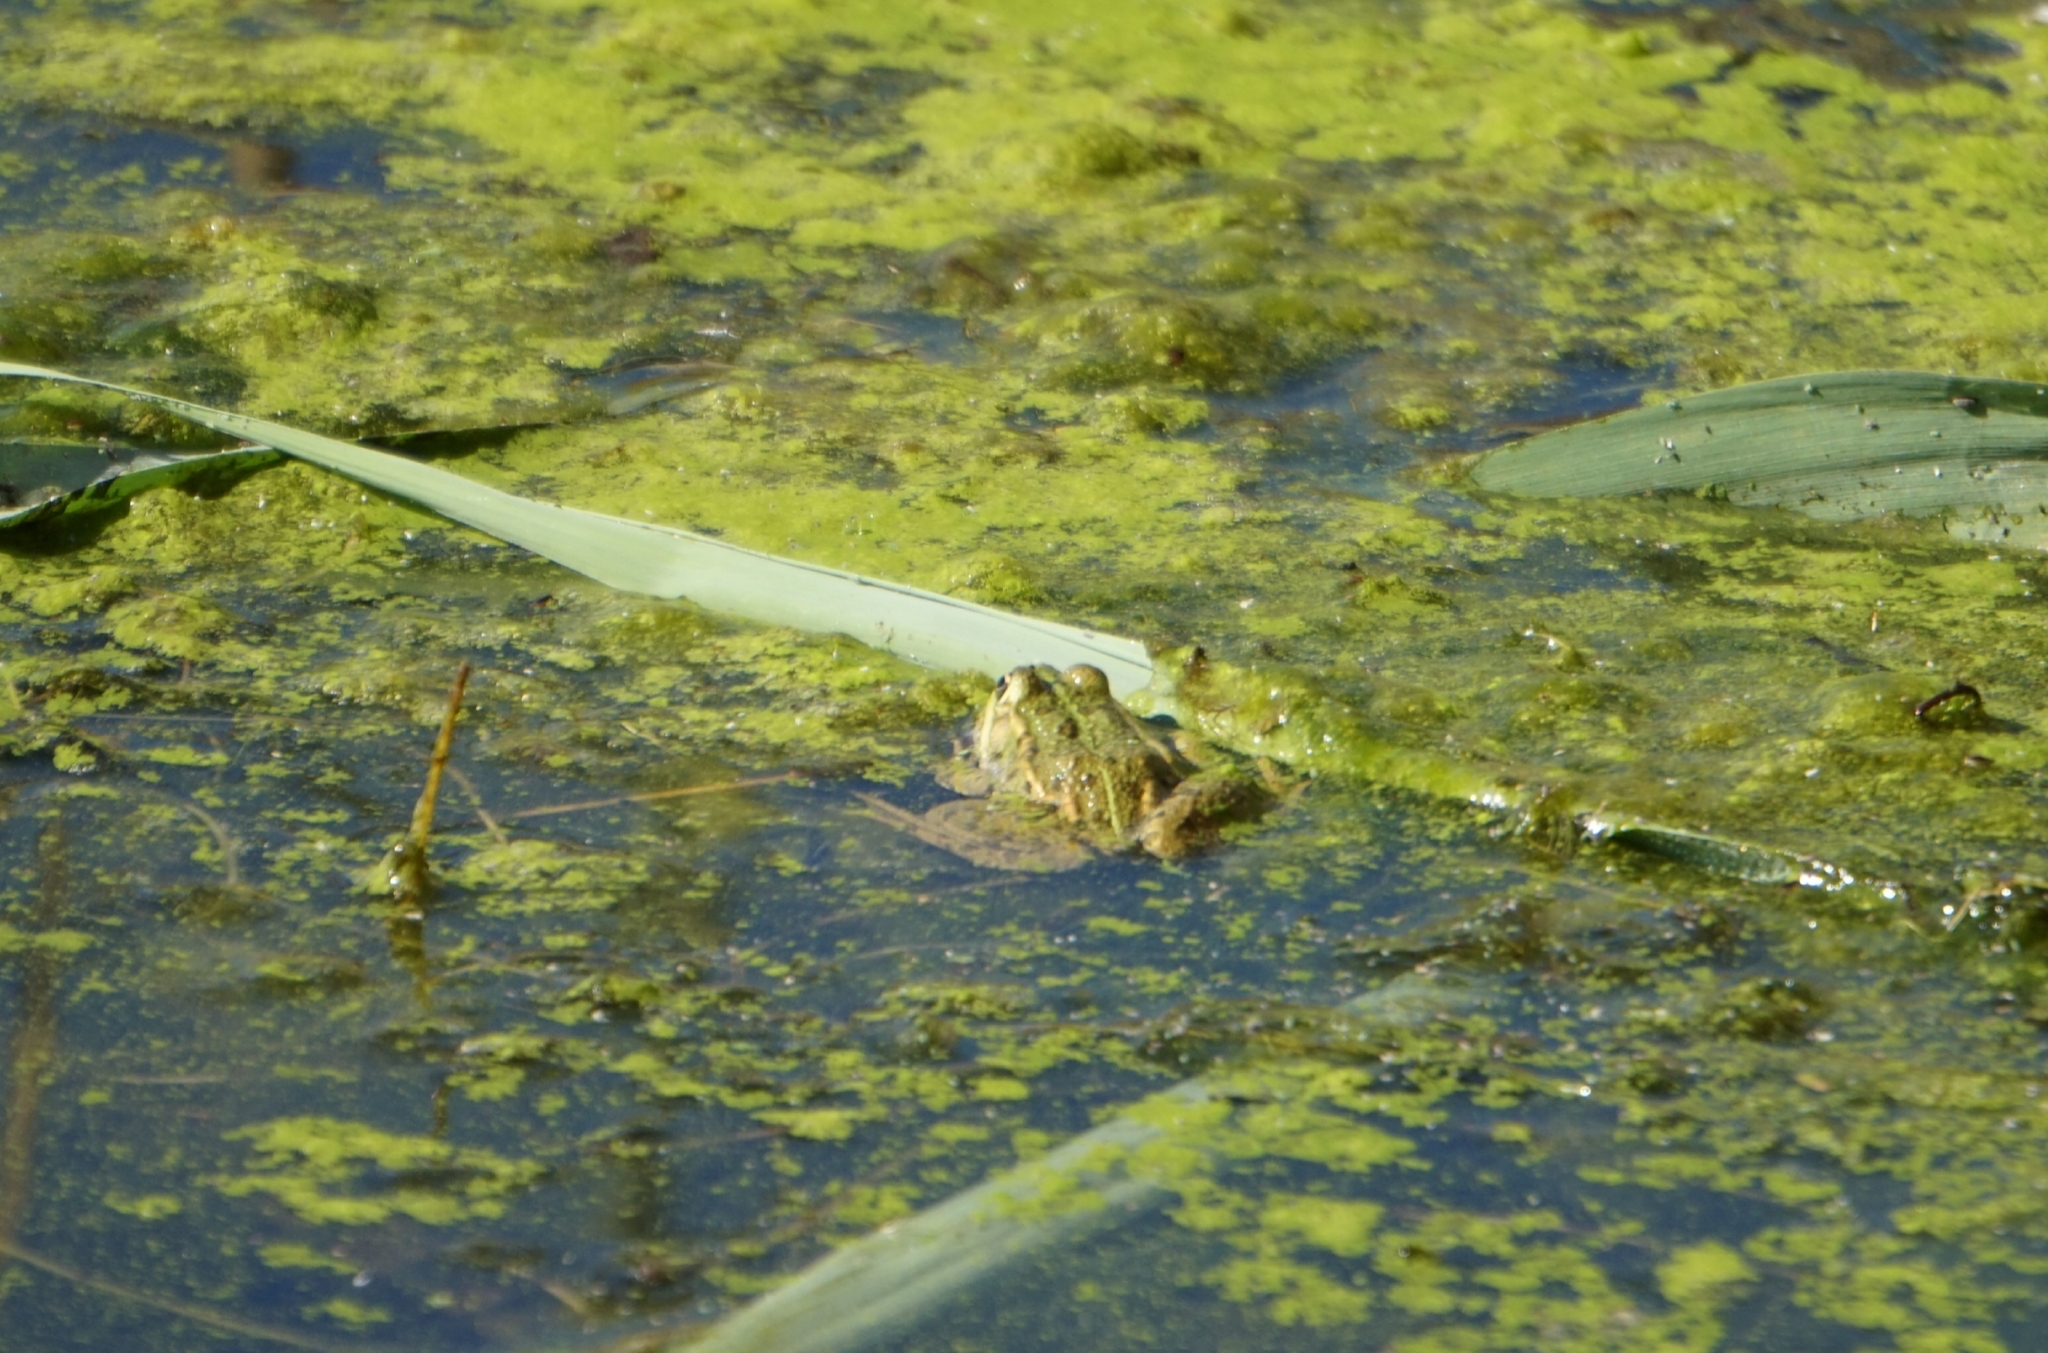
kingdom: Animalia
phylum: Chordata
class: Amphibia
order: Anura
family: Ranidae
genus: Pelophylax
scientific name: Pelophylax
